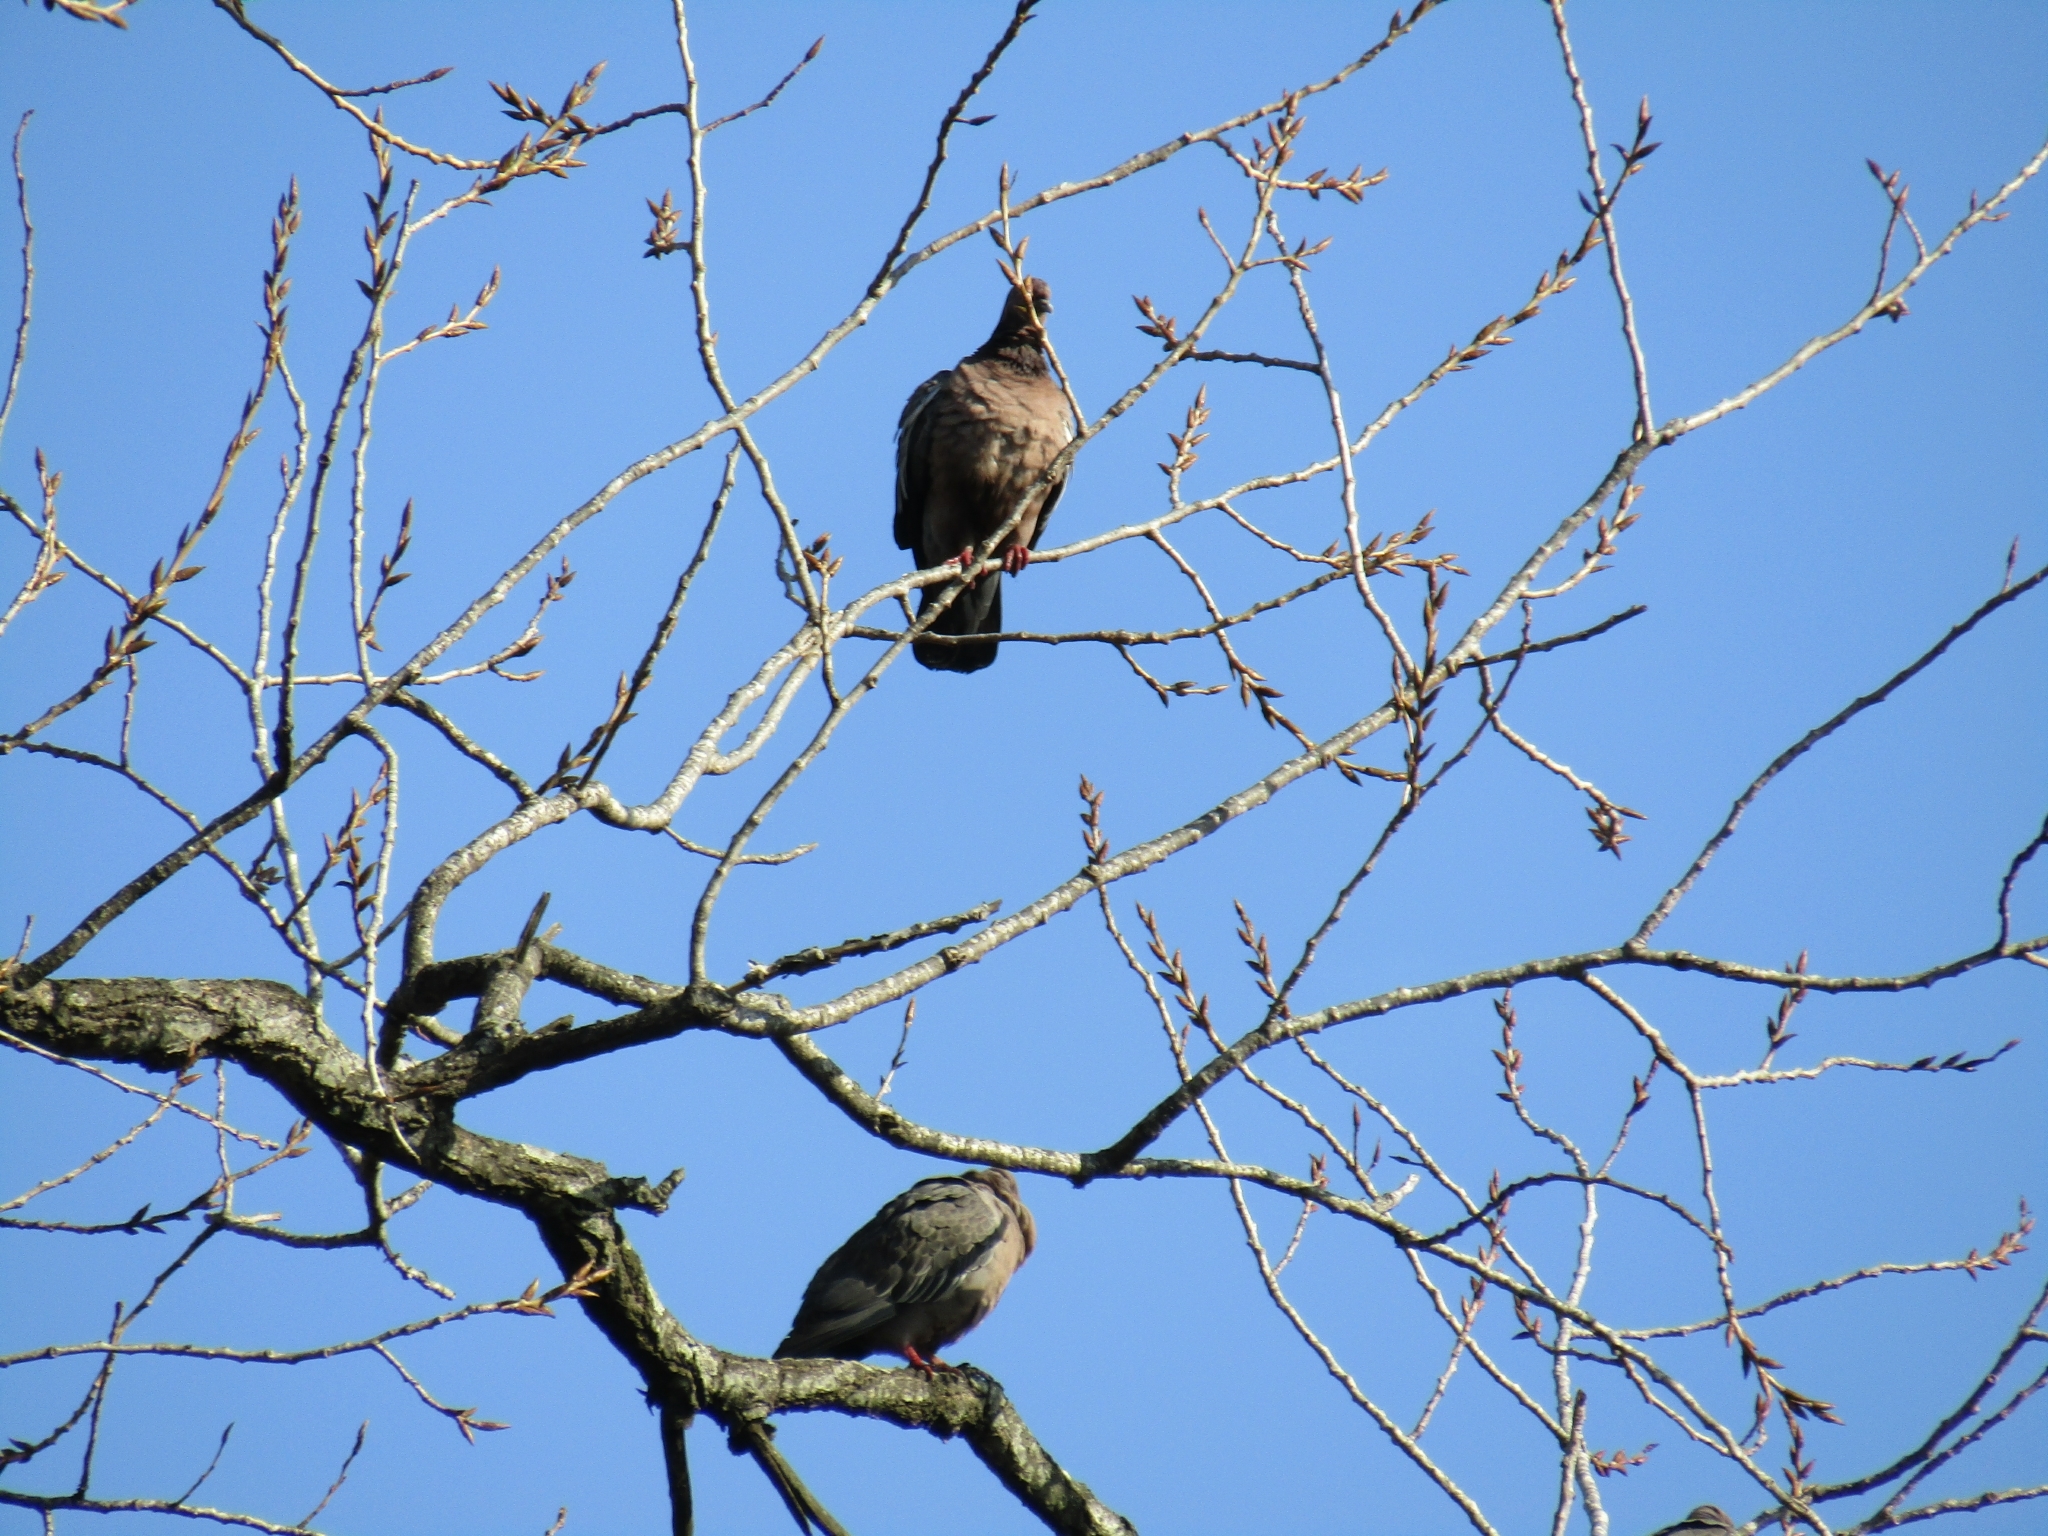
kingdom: Animalia
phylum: Chordata
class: Aves
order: Columbiformes
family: Columbidae
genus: Patagioenas
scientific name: Patagioenas picazuro
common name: Picazuro pigeon
